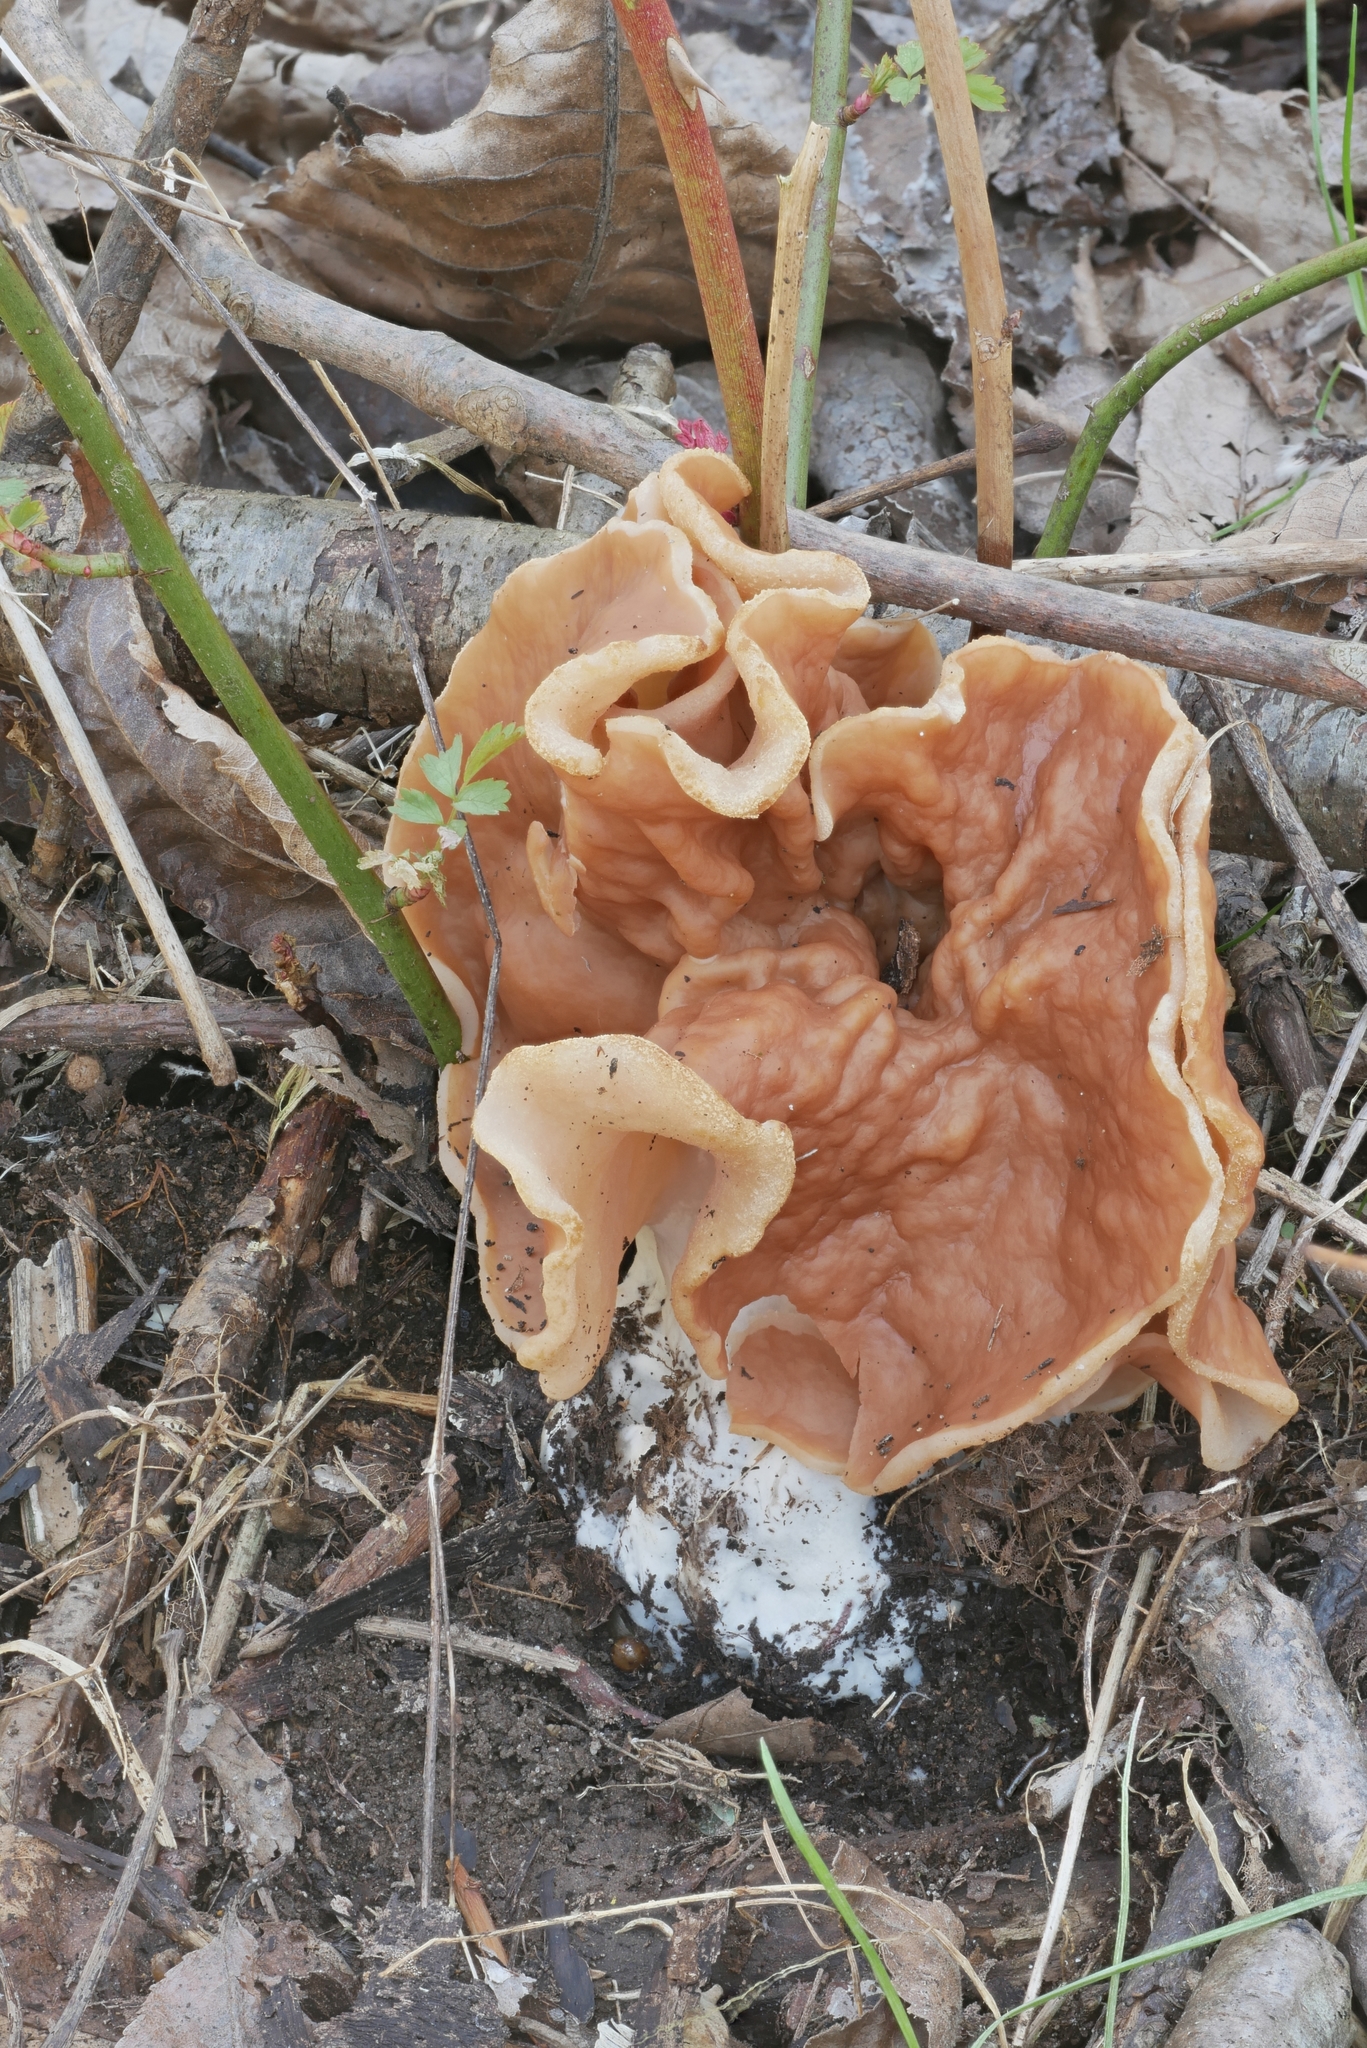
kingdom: Fungi
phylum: Ascomycota
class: Pezizomycetes
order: Pezizales
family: Discinaceae
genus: Discina
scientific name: Discina brunnea
